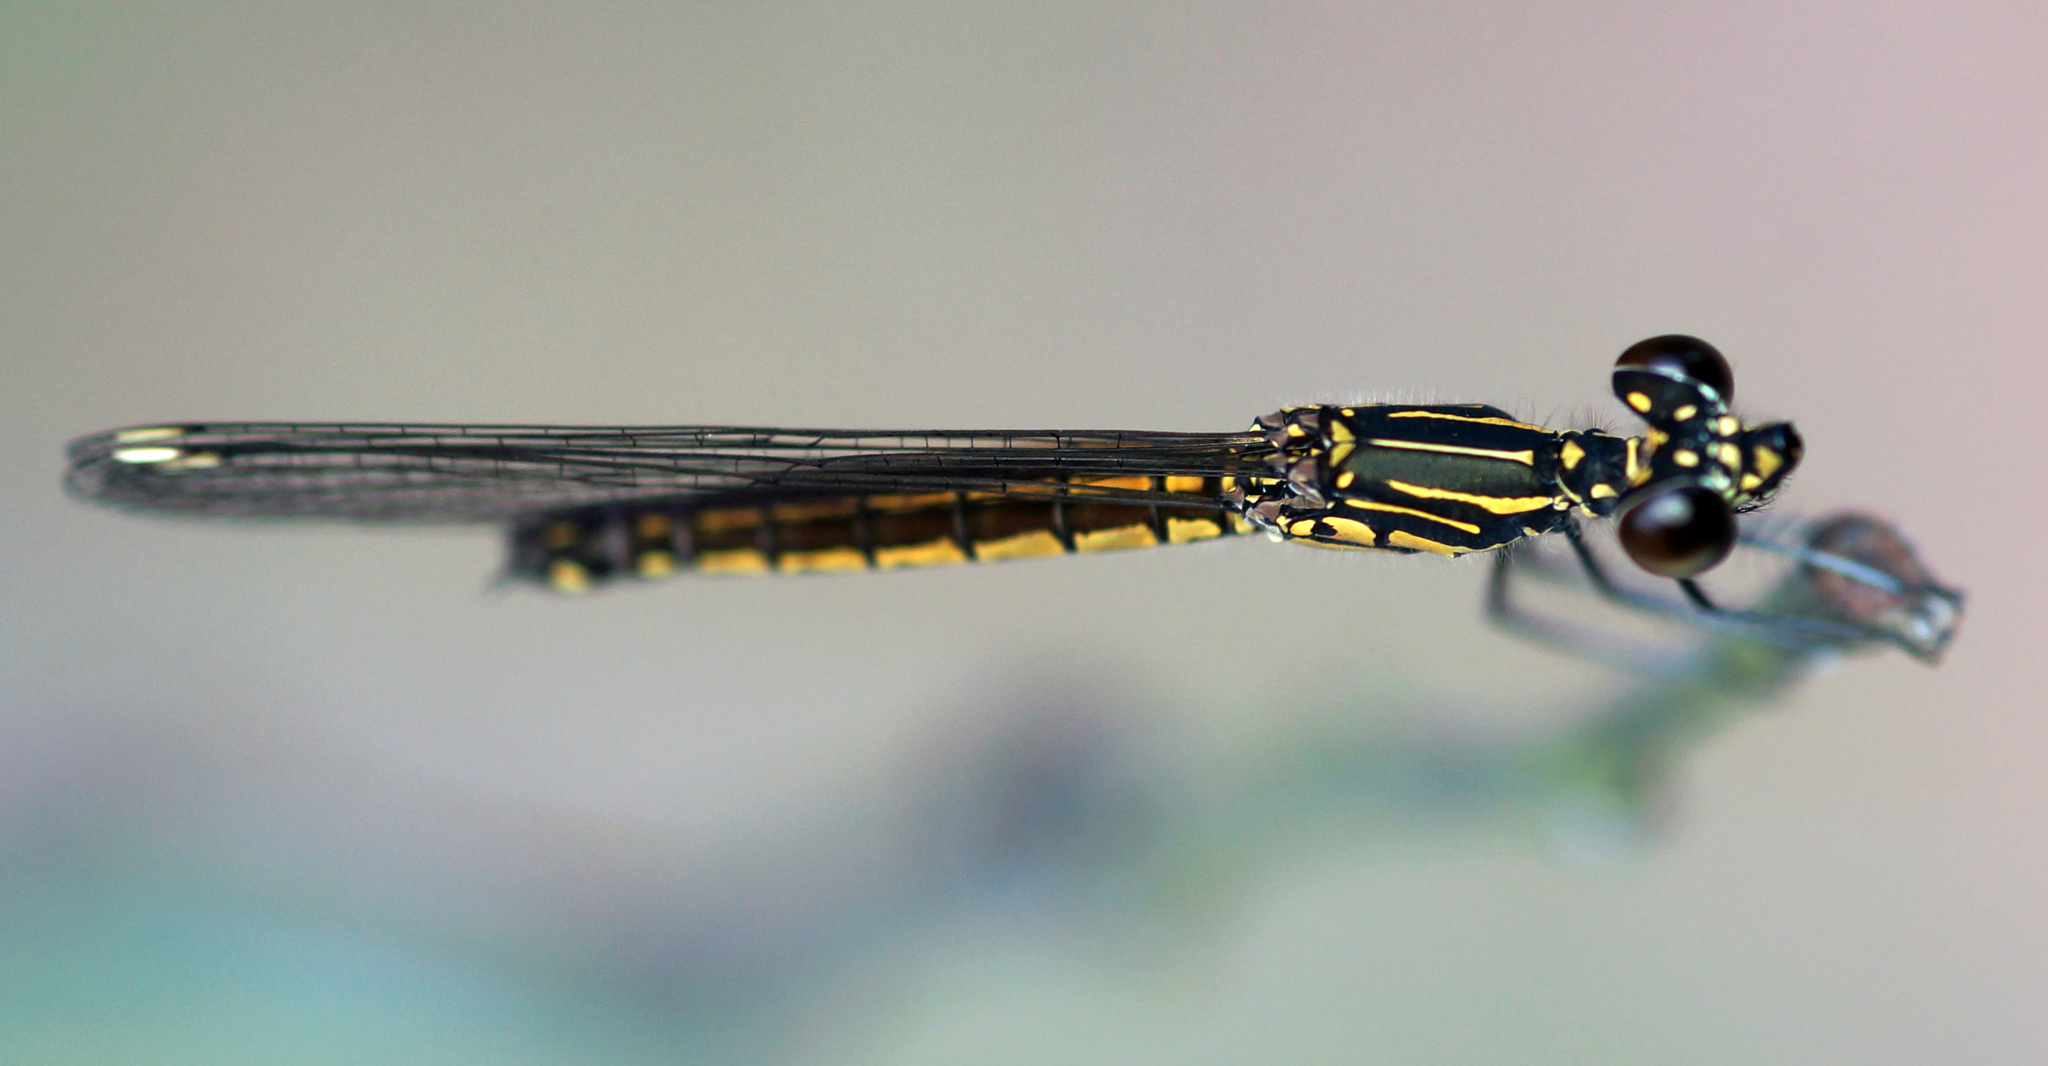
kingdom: Animalia
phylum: Arthropoda
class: Insecta
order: Odonata
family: Chlorocyphidae
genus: Libellago
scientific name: Libellago lineata
